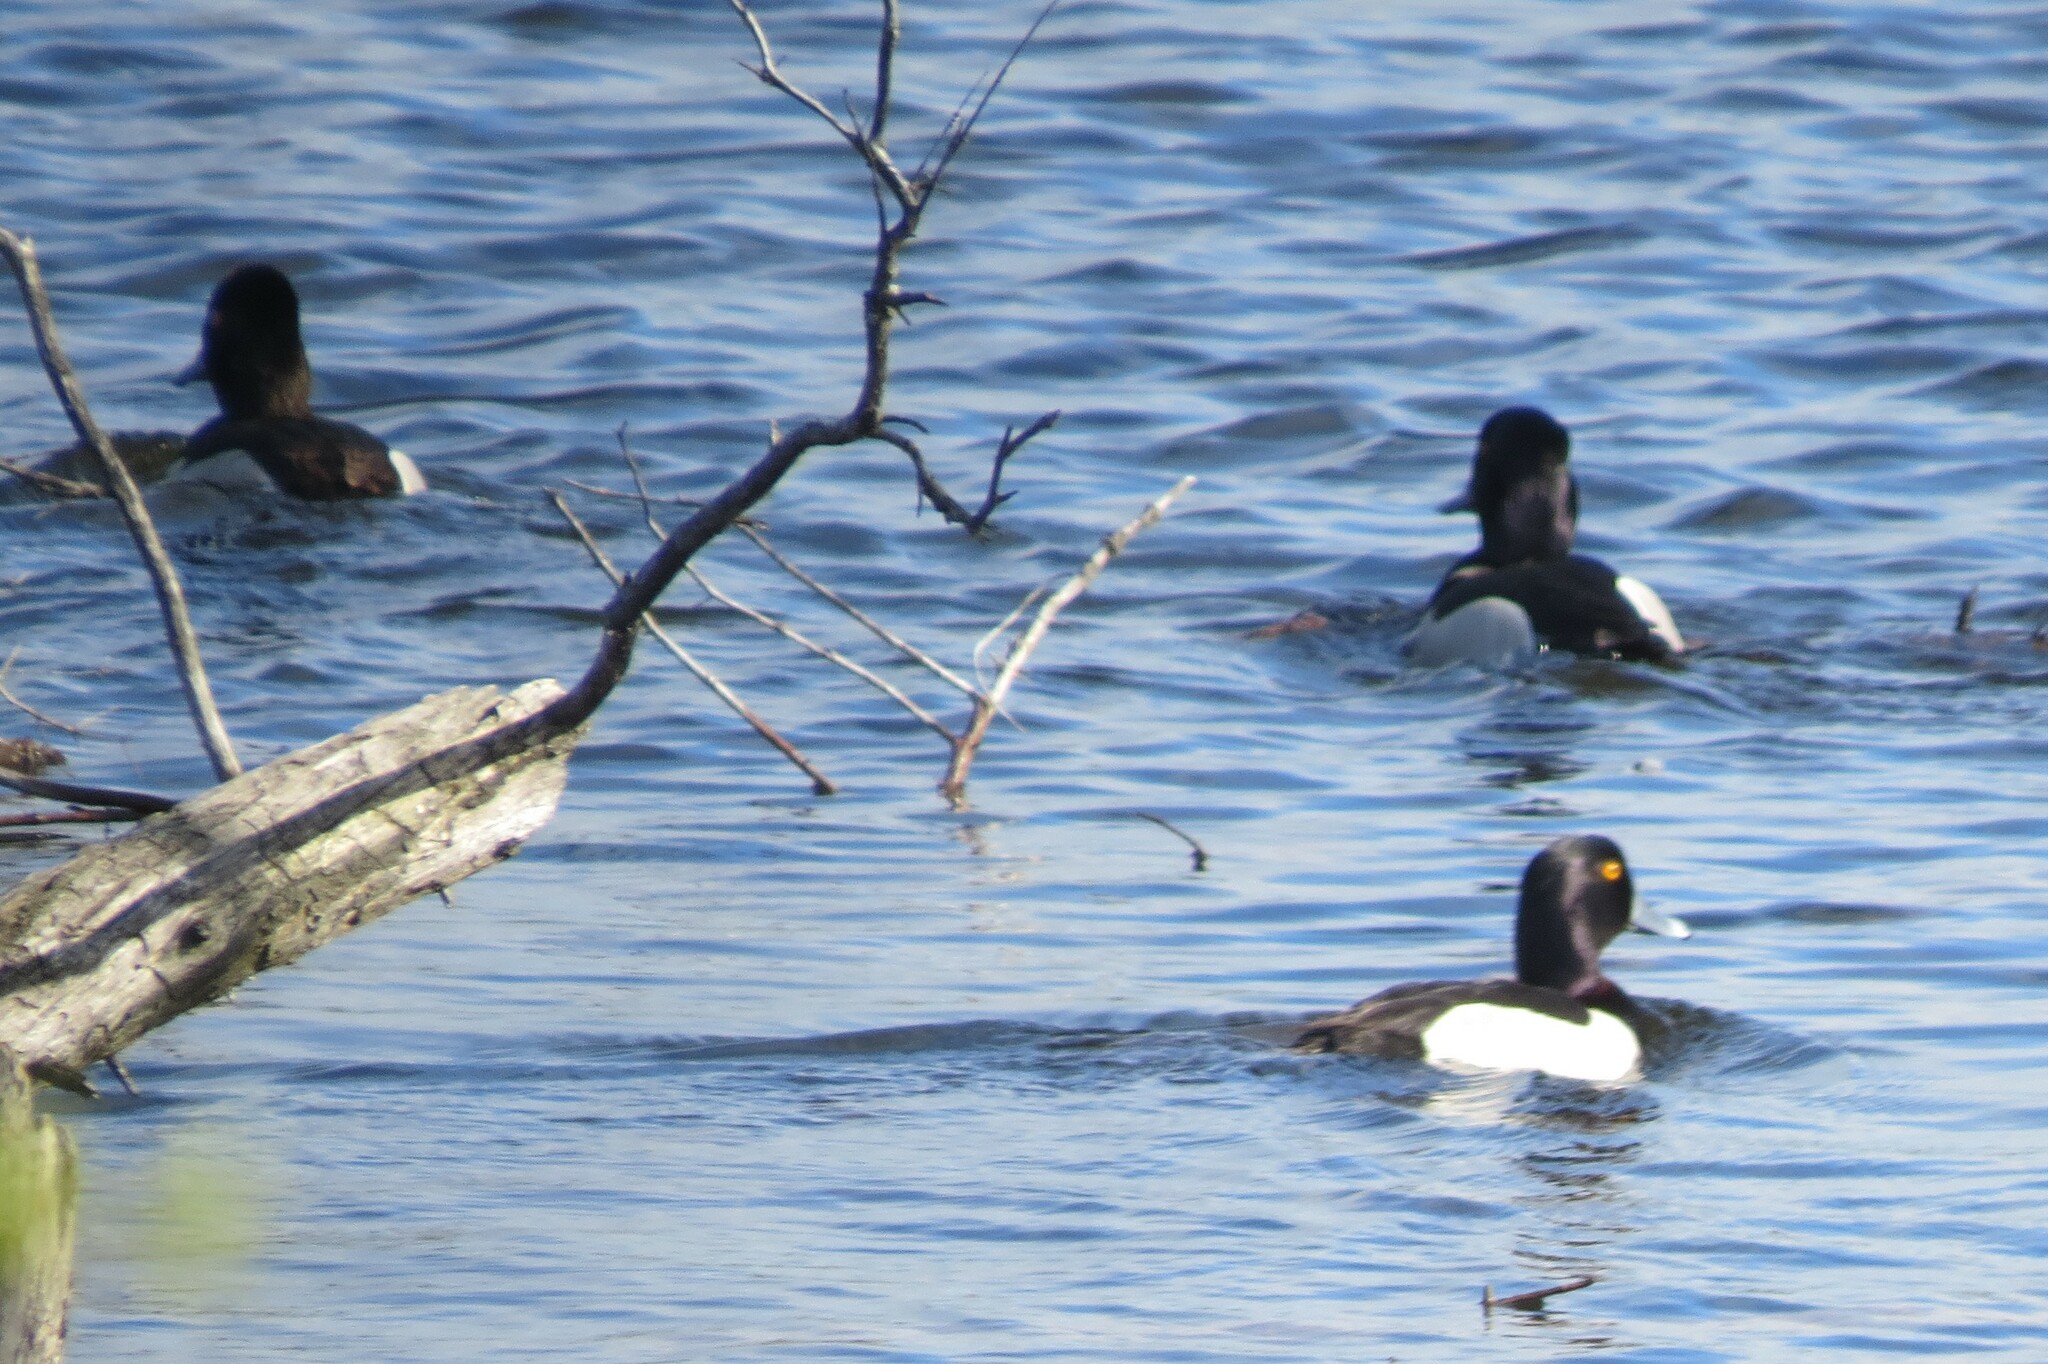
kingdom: Animalia
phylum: Chordata
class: Aves
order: Anseriformes
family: Anatidae
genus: Aythya
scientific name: Aythya collaris
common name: Ring-necked duck
